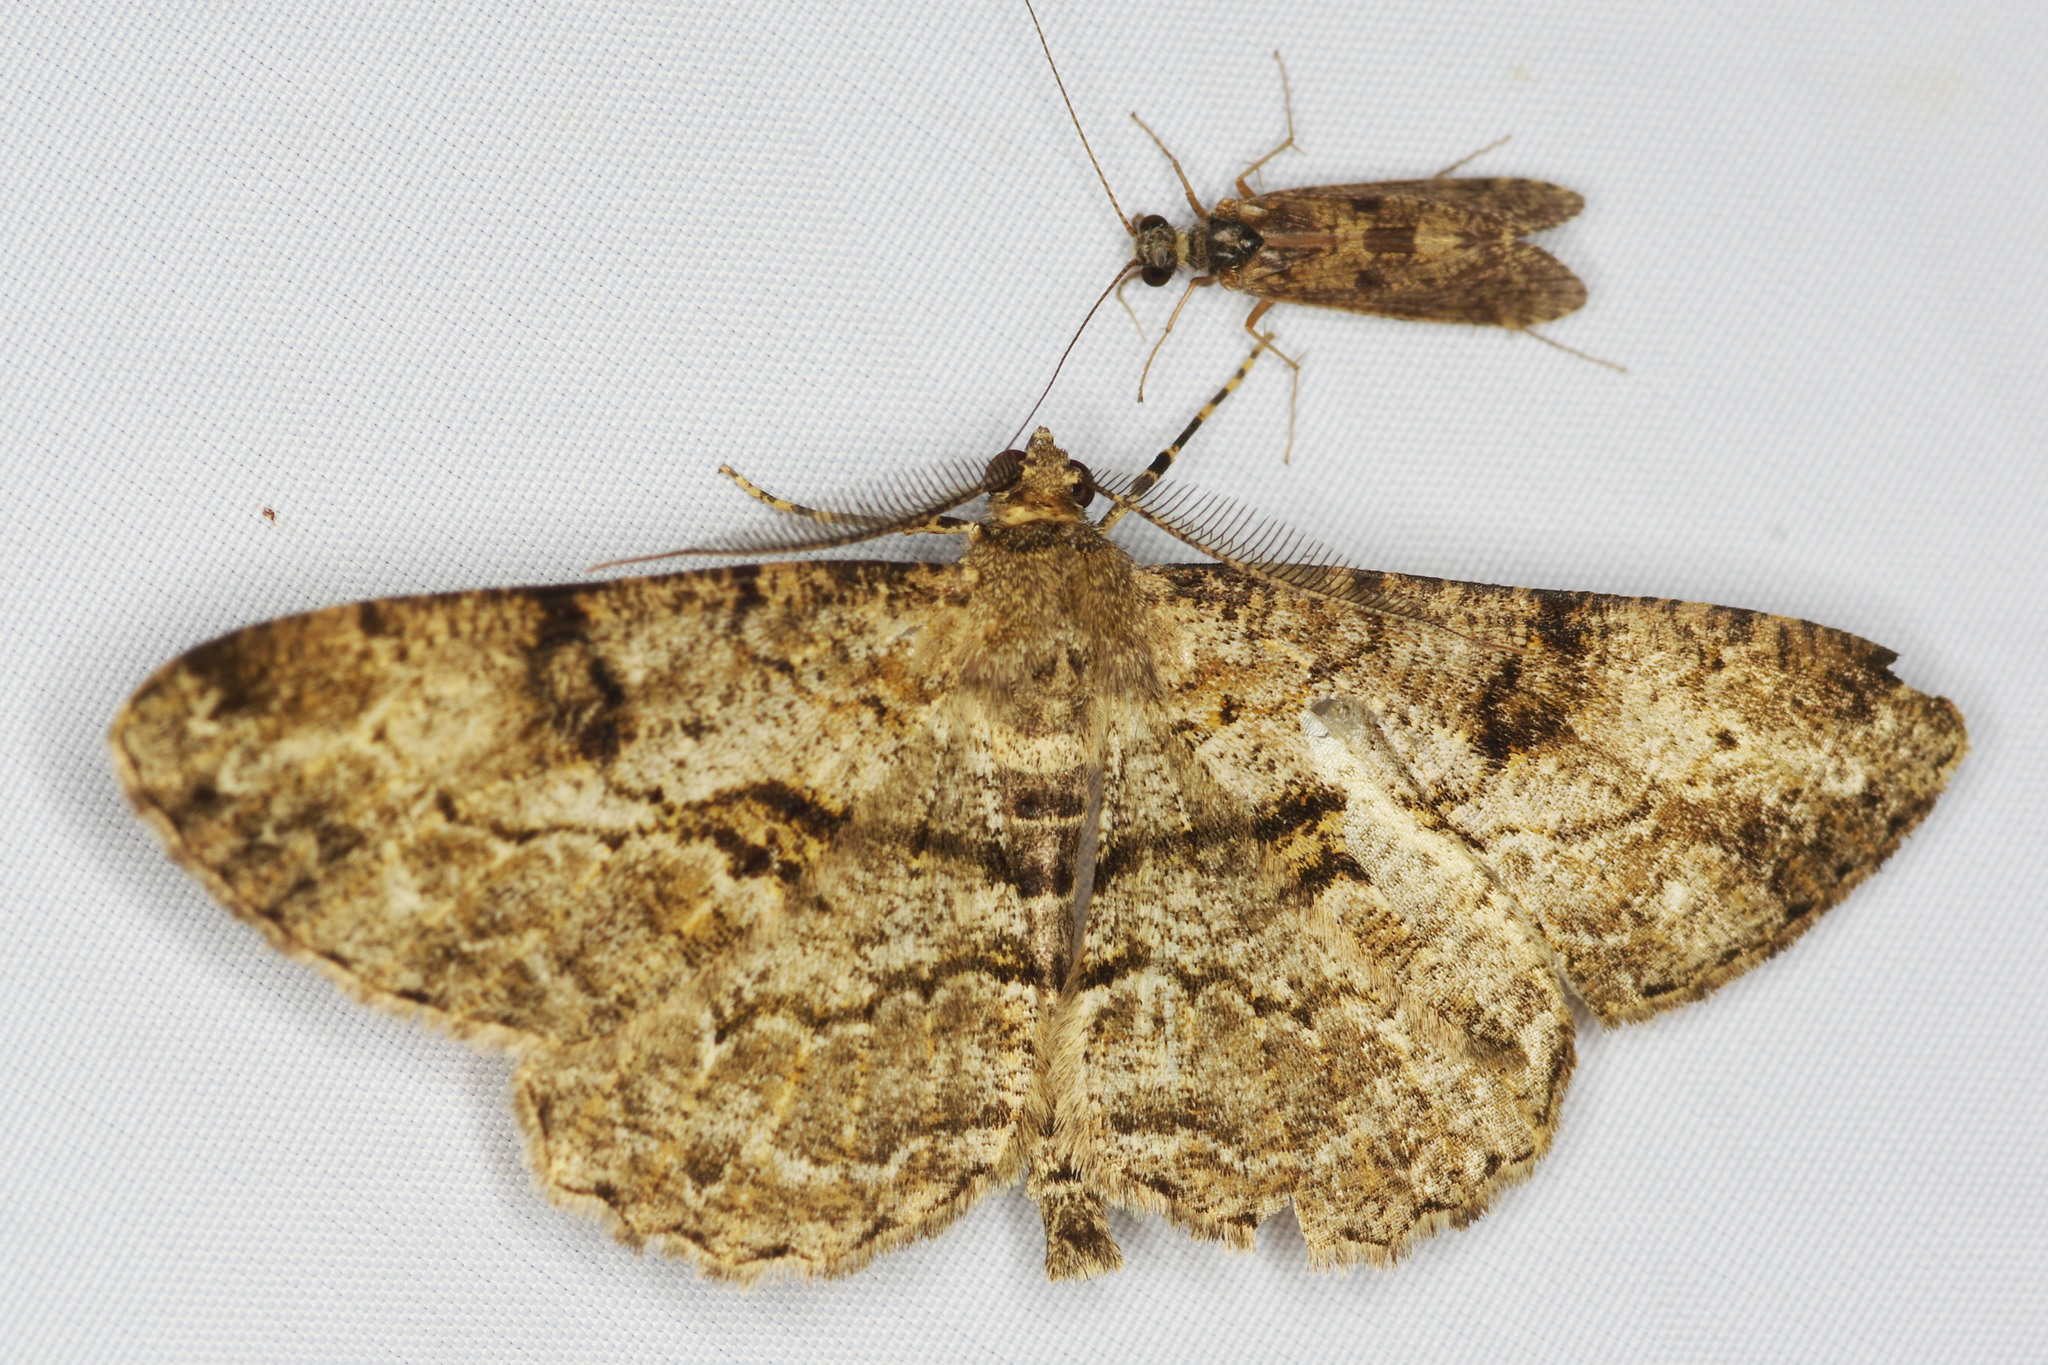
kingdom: Animalia
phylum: Arthropoda
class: Insecta
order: Lepidoptera
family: Geometridae
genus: Peribatodes
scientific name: Peribatodes rhomboidaria
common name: Willow beauty
